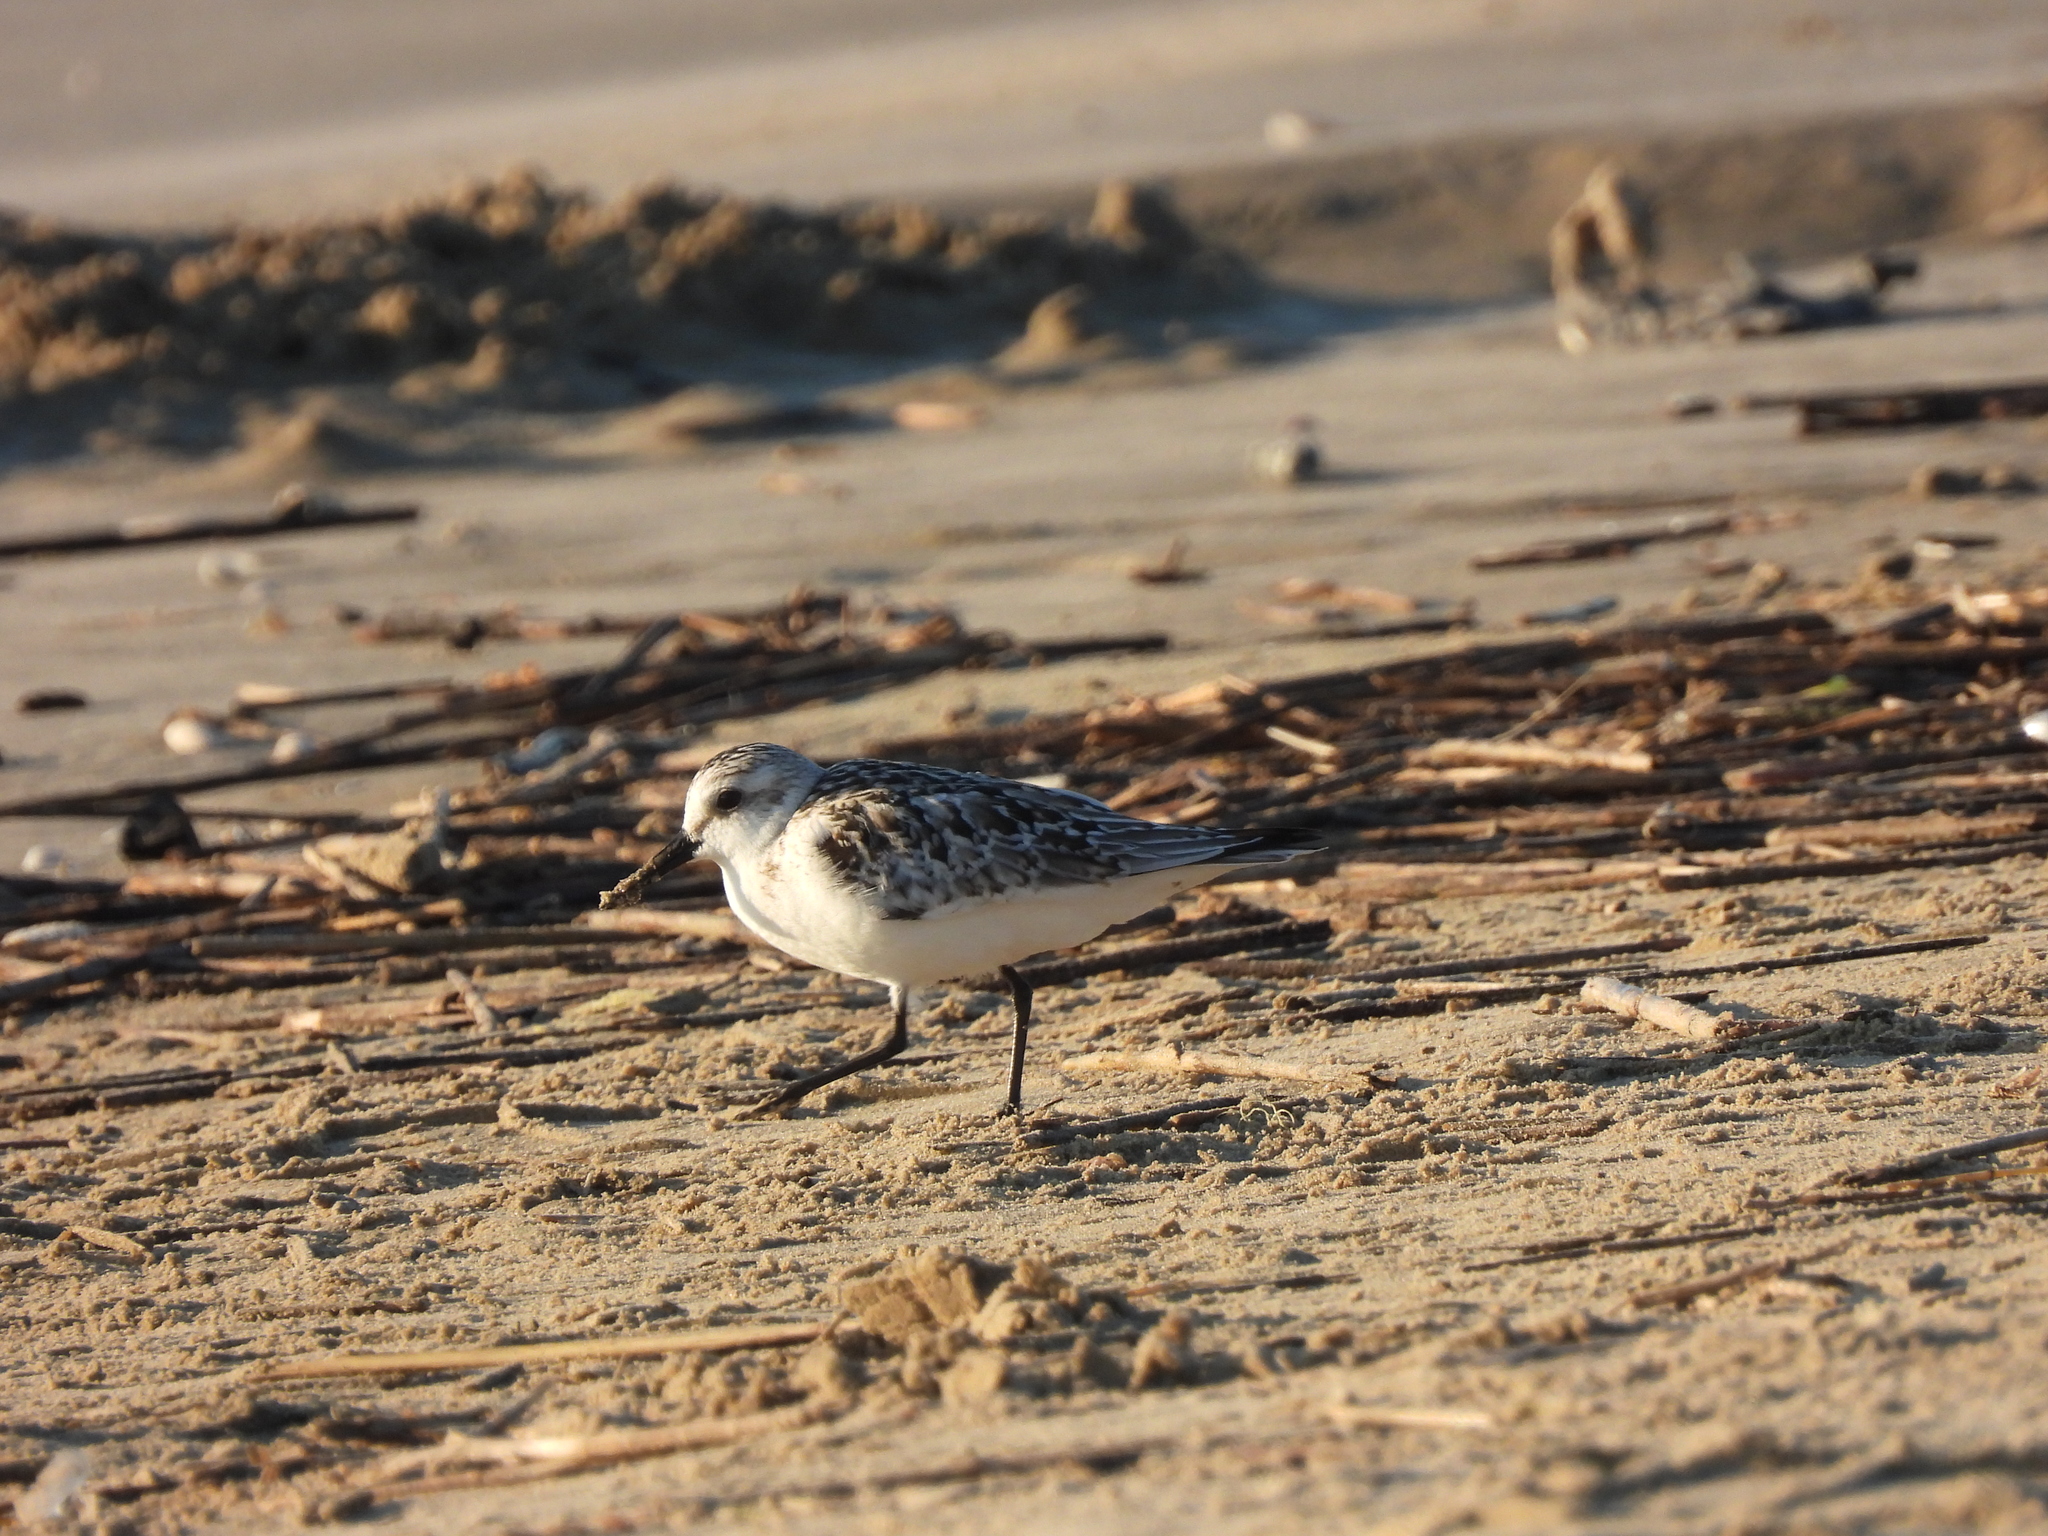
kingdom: Animalia
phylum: Chordata
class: Aves
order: Charadriiformes
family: Scolopacidae
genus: Calidris
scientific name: Calidris alba
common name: Sanderling
